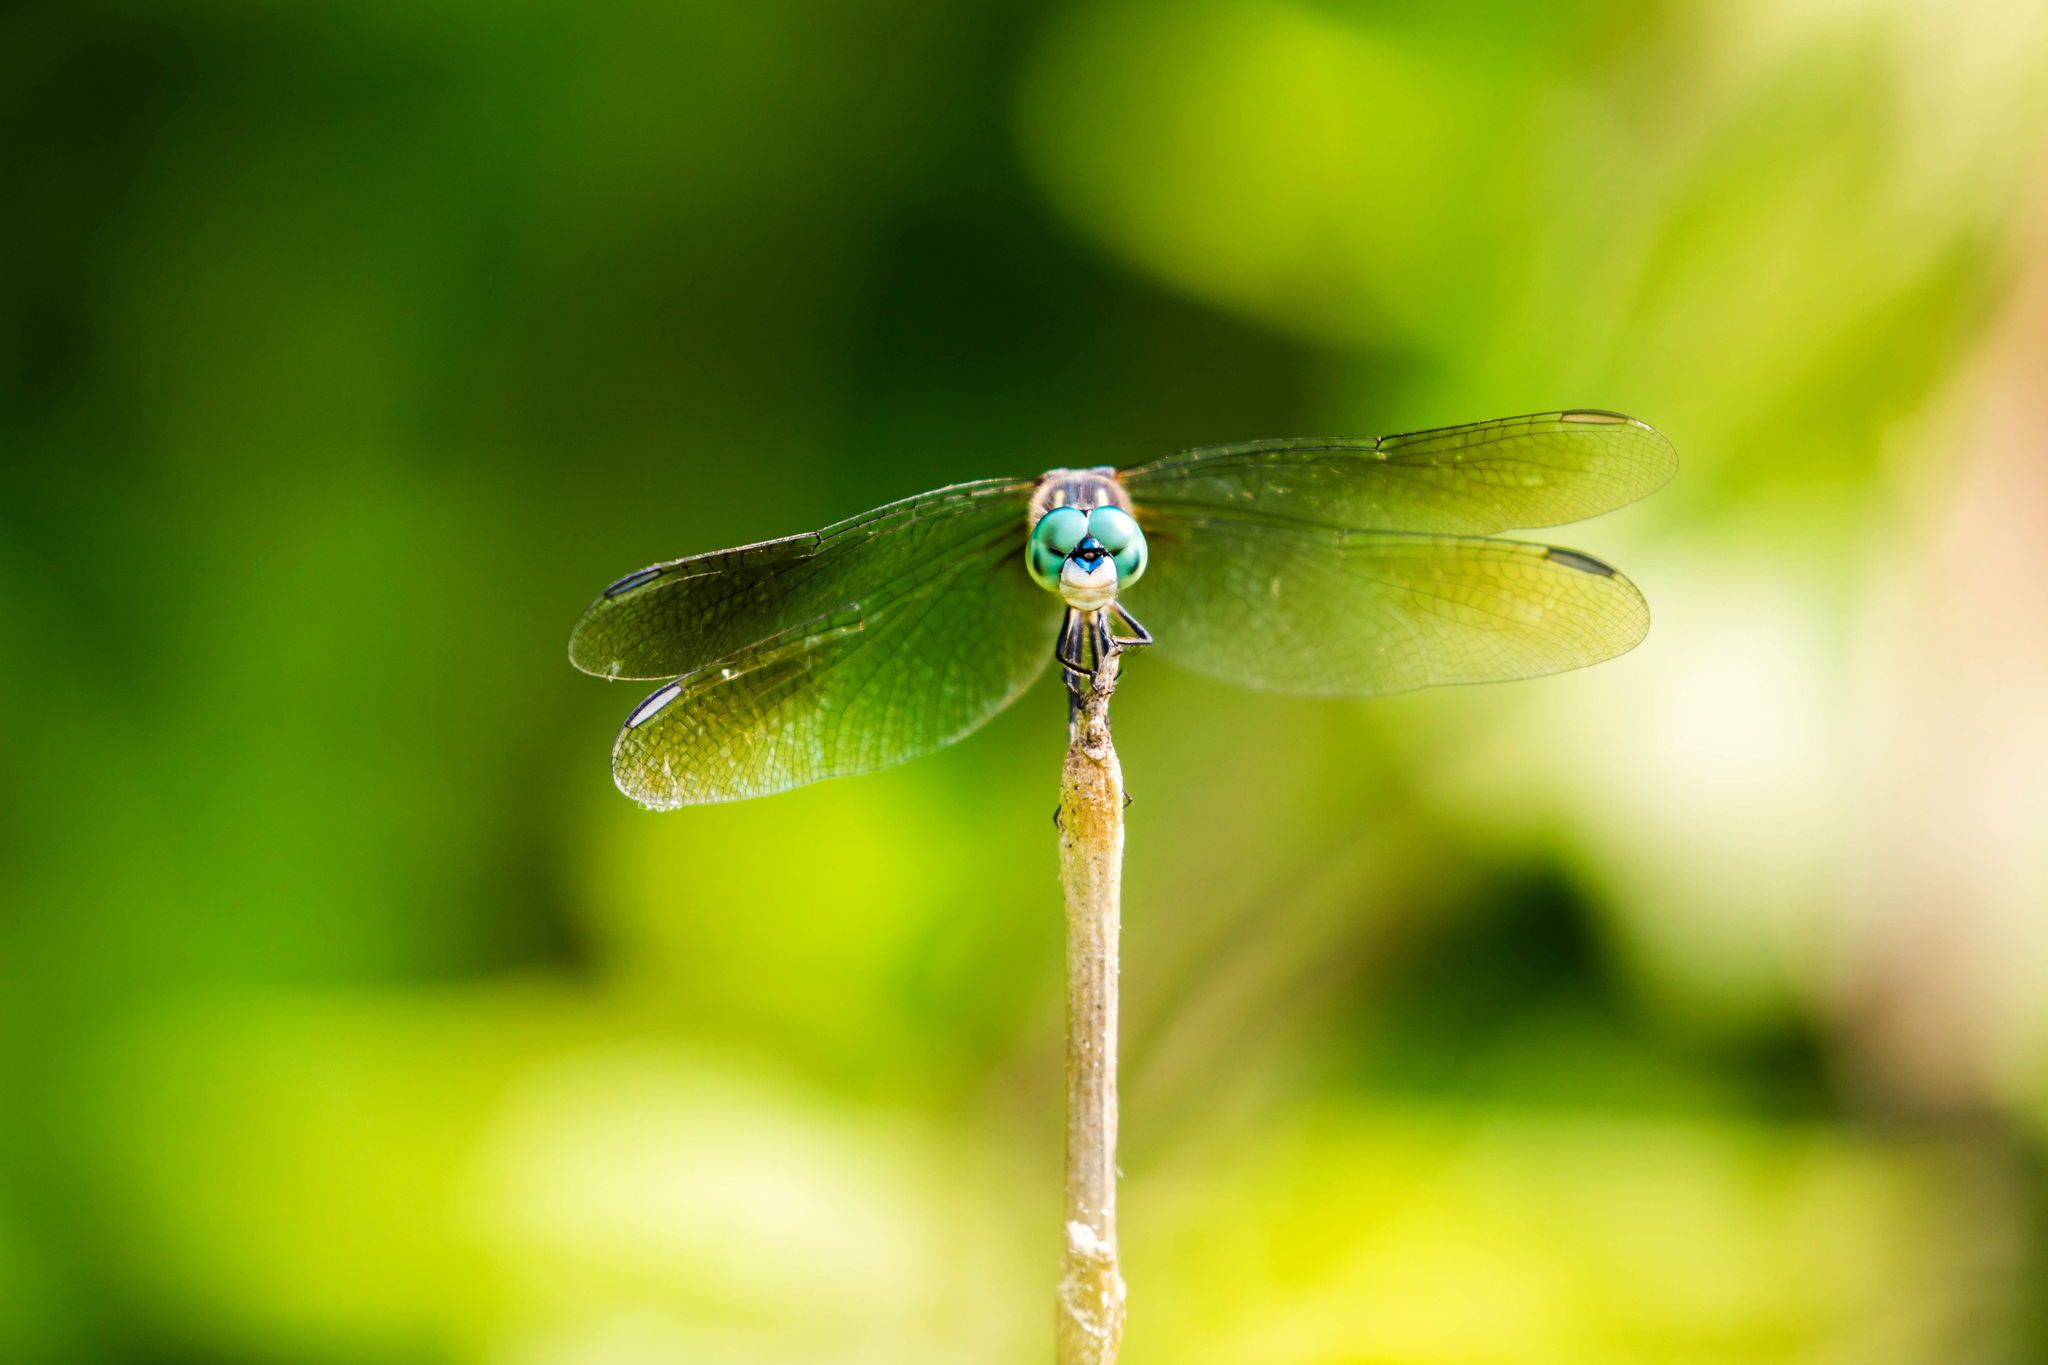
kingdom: Animalia
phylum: Arthropoda
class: Insecta
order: Odonata
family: Libellulidae
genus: Pachydiplax
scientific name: Pachydiplax longipennis
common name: Blue dasher
